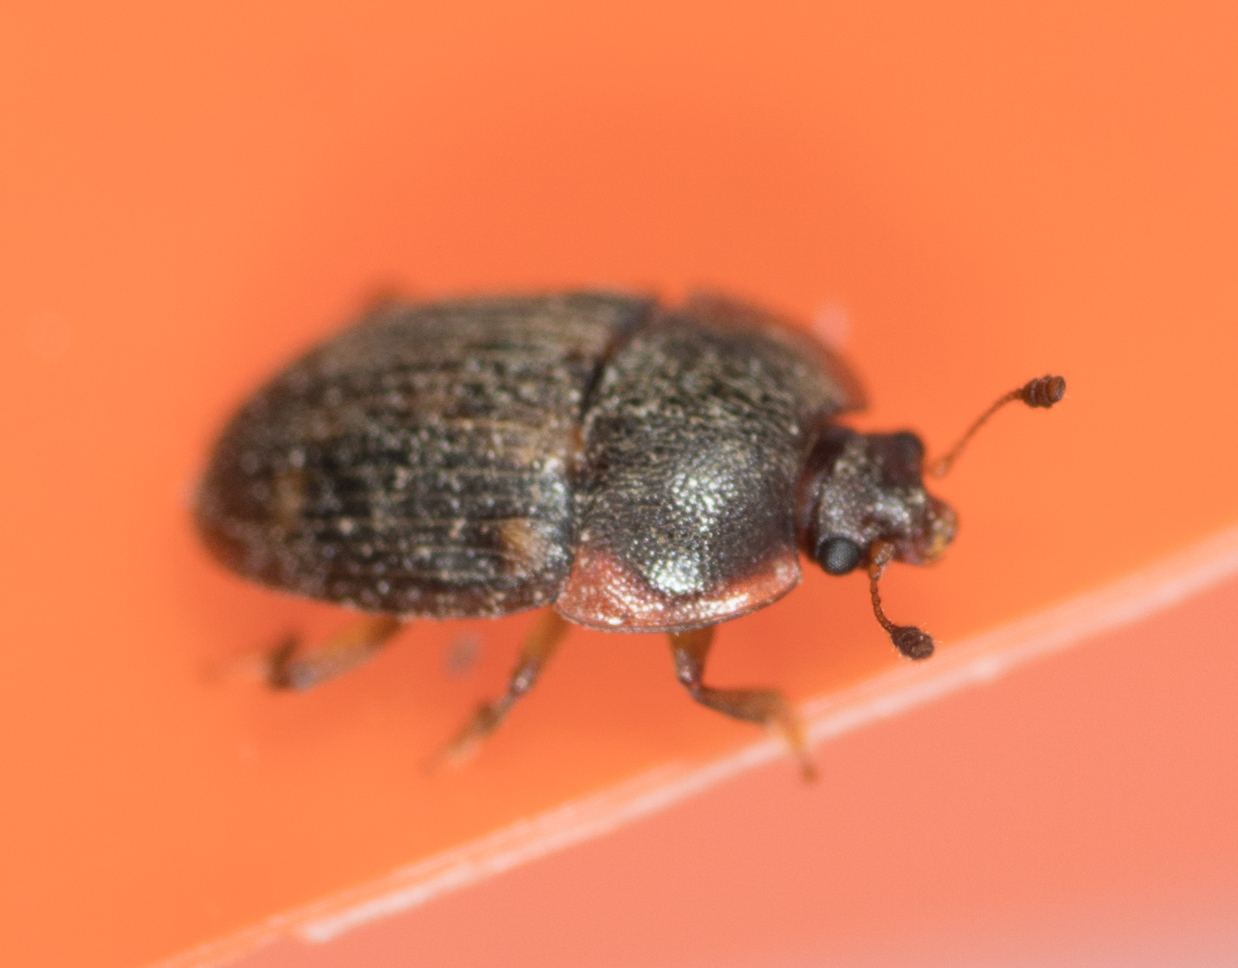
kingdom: Animalia
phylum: Arthropoda
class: Insecta
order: Coleoptera
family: Nitidulidae
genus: Stelidota
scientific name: Stelidota geminata
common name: Strawberry sap beetle
